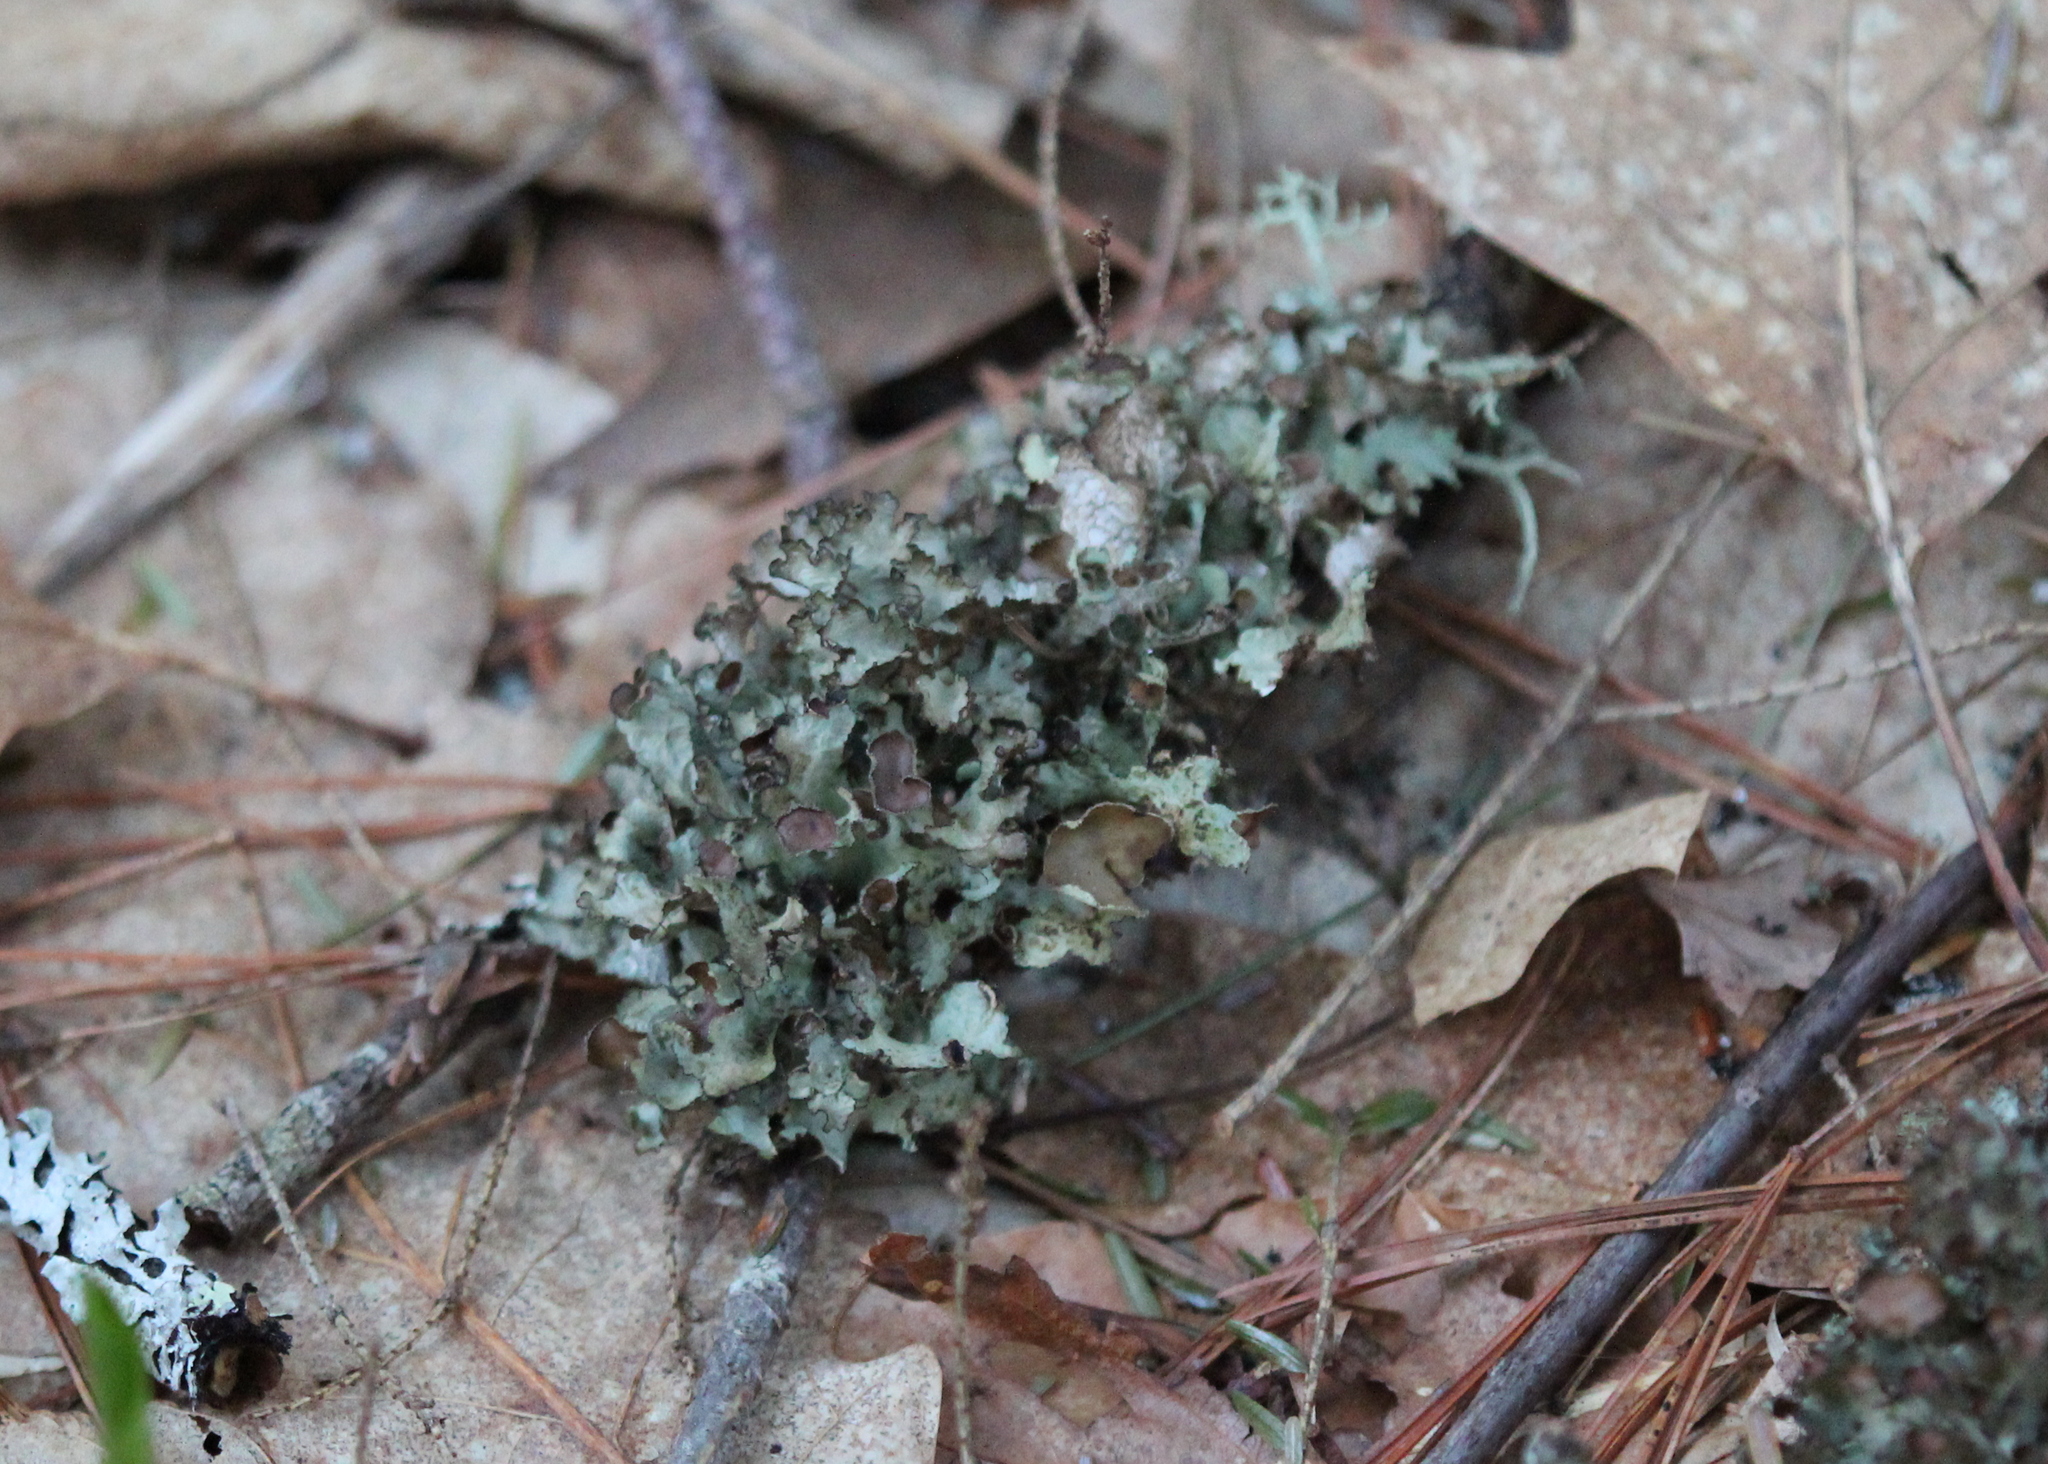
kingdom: Fungi
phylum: Ascomycota
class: Lecanoromycetes
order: Lecanorales
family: Parmeliaceae
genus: Platismatia
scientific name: Platismatia tuckermanii
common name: Crumpled rag lichen
